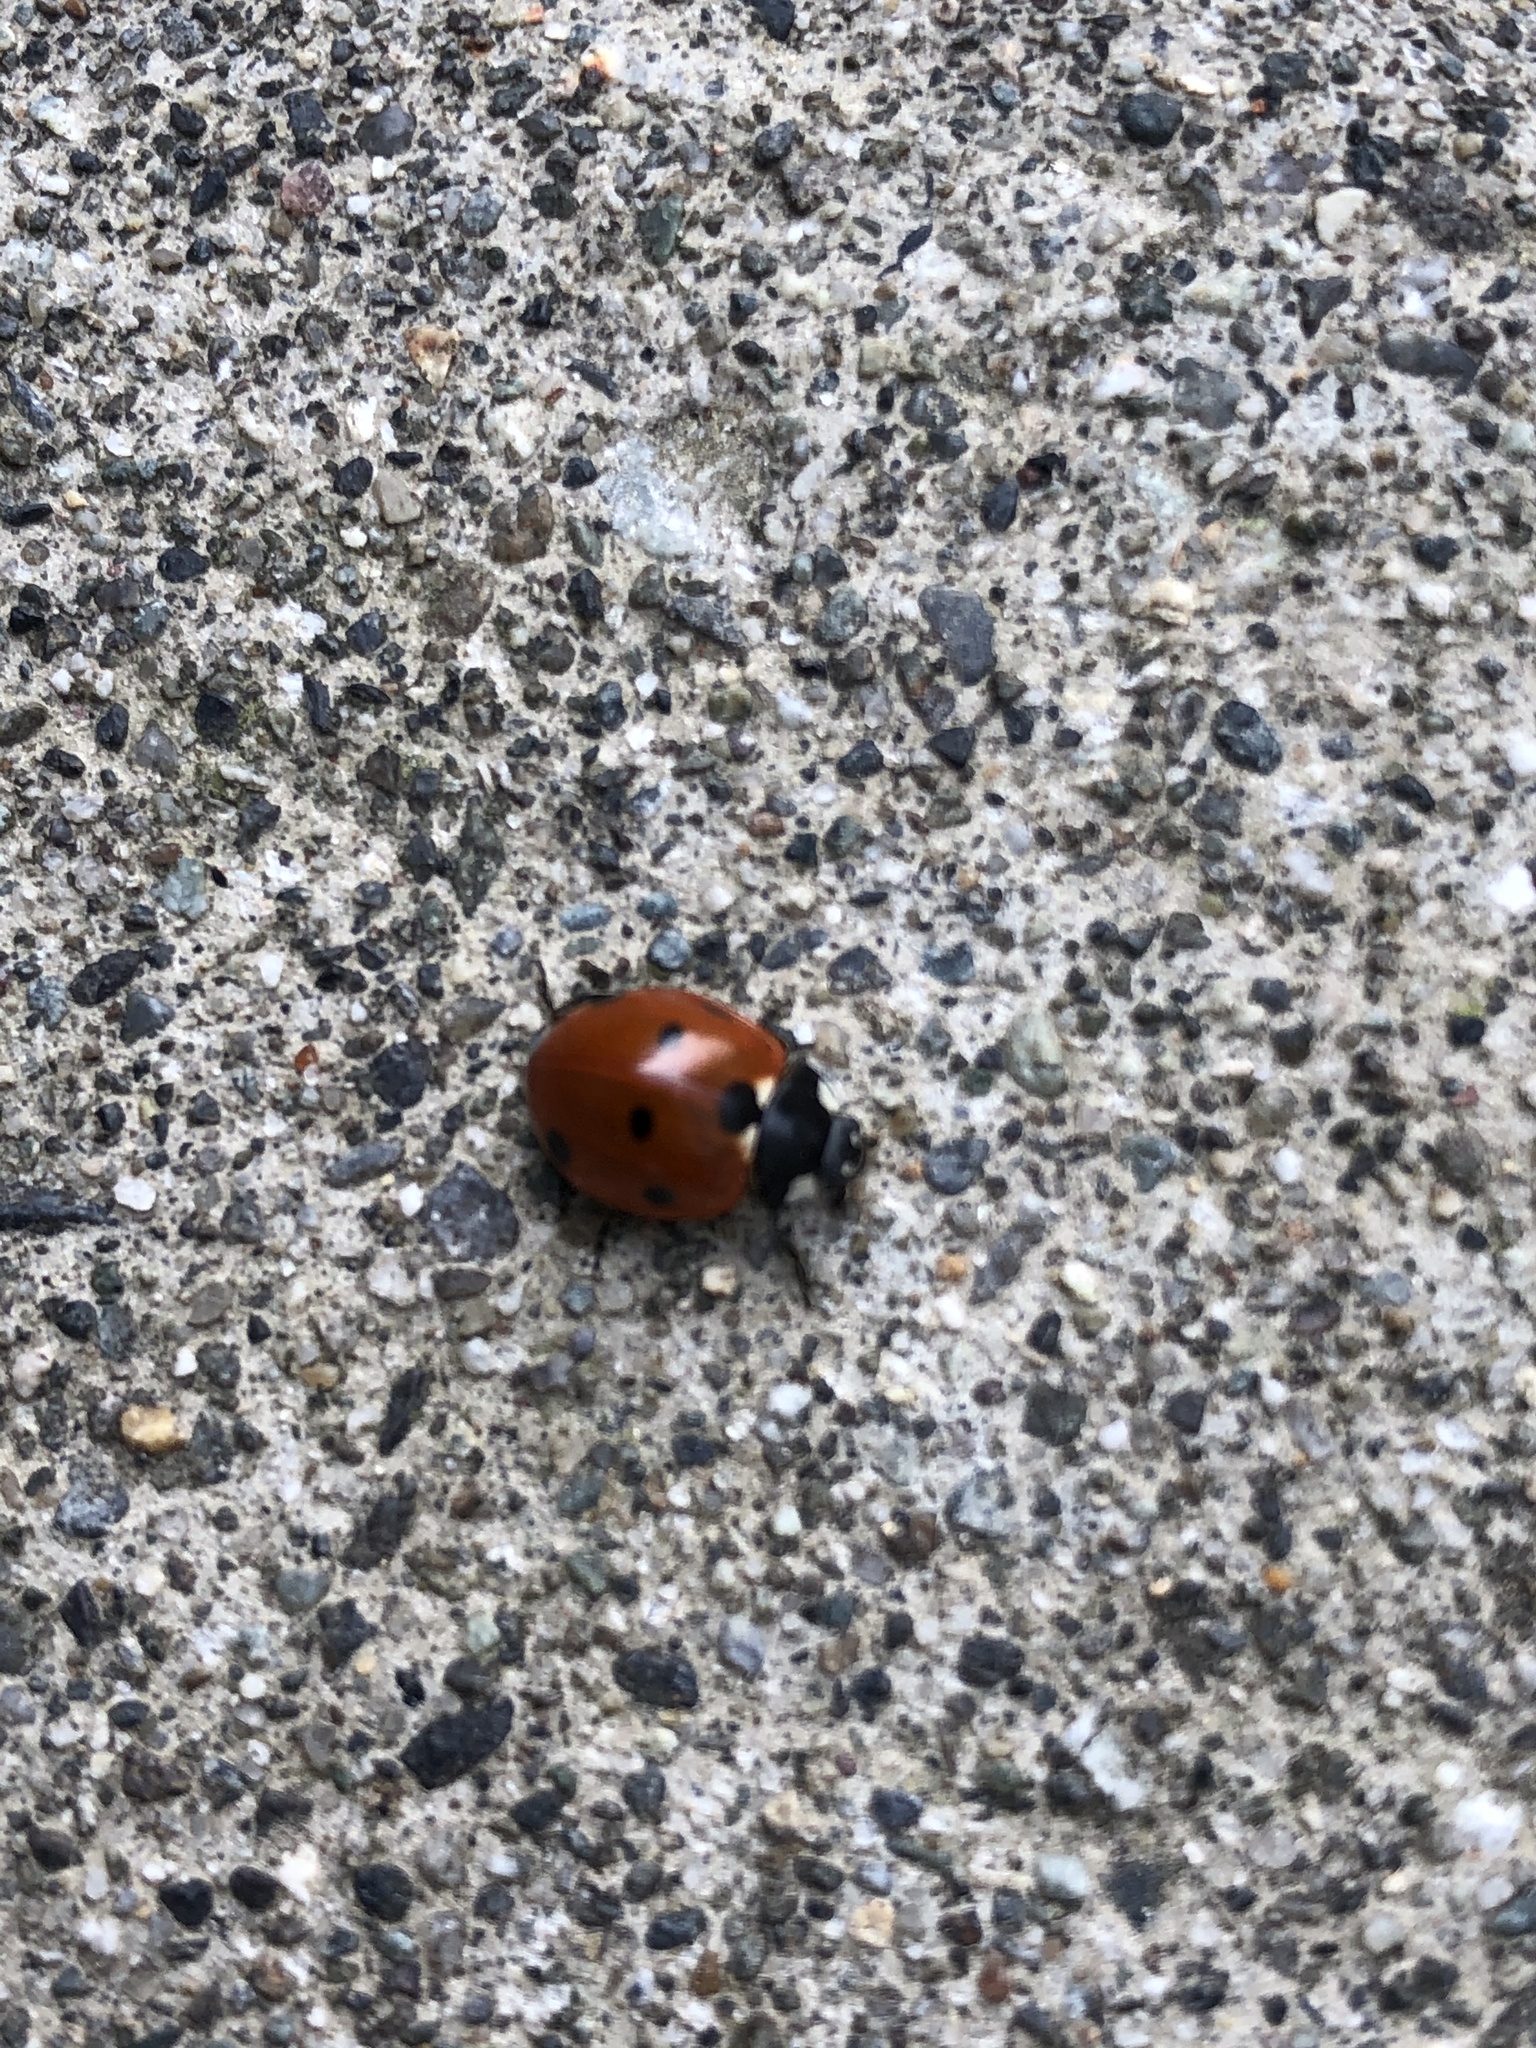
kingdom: Animalia
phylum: Arthropoda
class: Insecta
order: Coleoptera
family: Coccinellidae
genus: Coccinella
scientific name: Coccinella septempunctata
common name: Sevenspotted lady beetle
